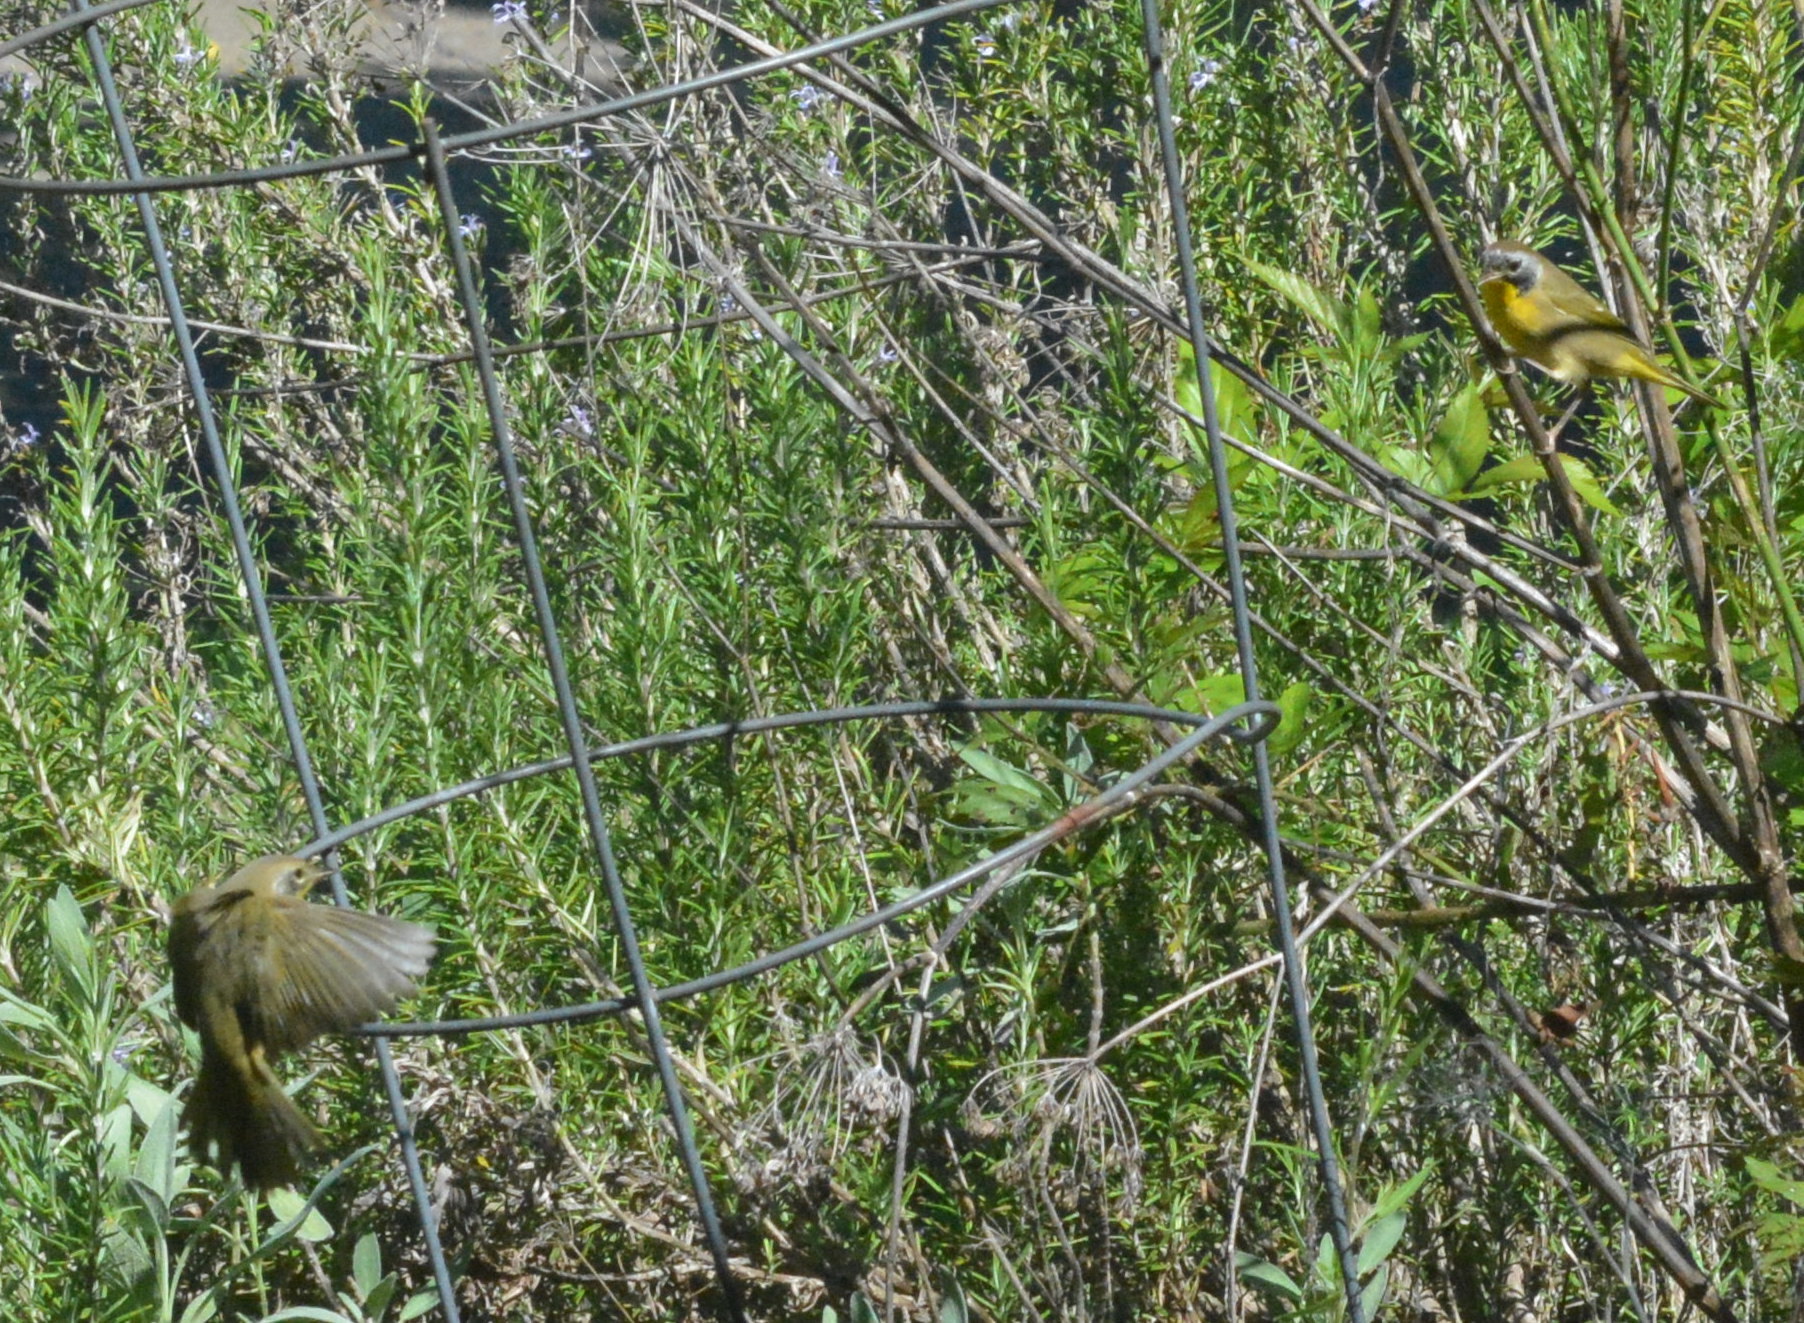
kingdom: Animalia
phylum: Chordata
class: Aves
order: Passeriformes
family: Parulidae
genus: Geothlypis
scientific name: Geothlypis trichas
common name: Common yellowthroat
